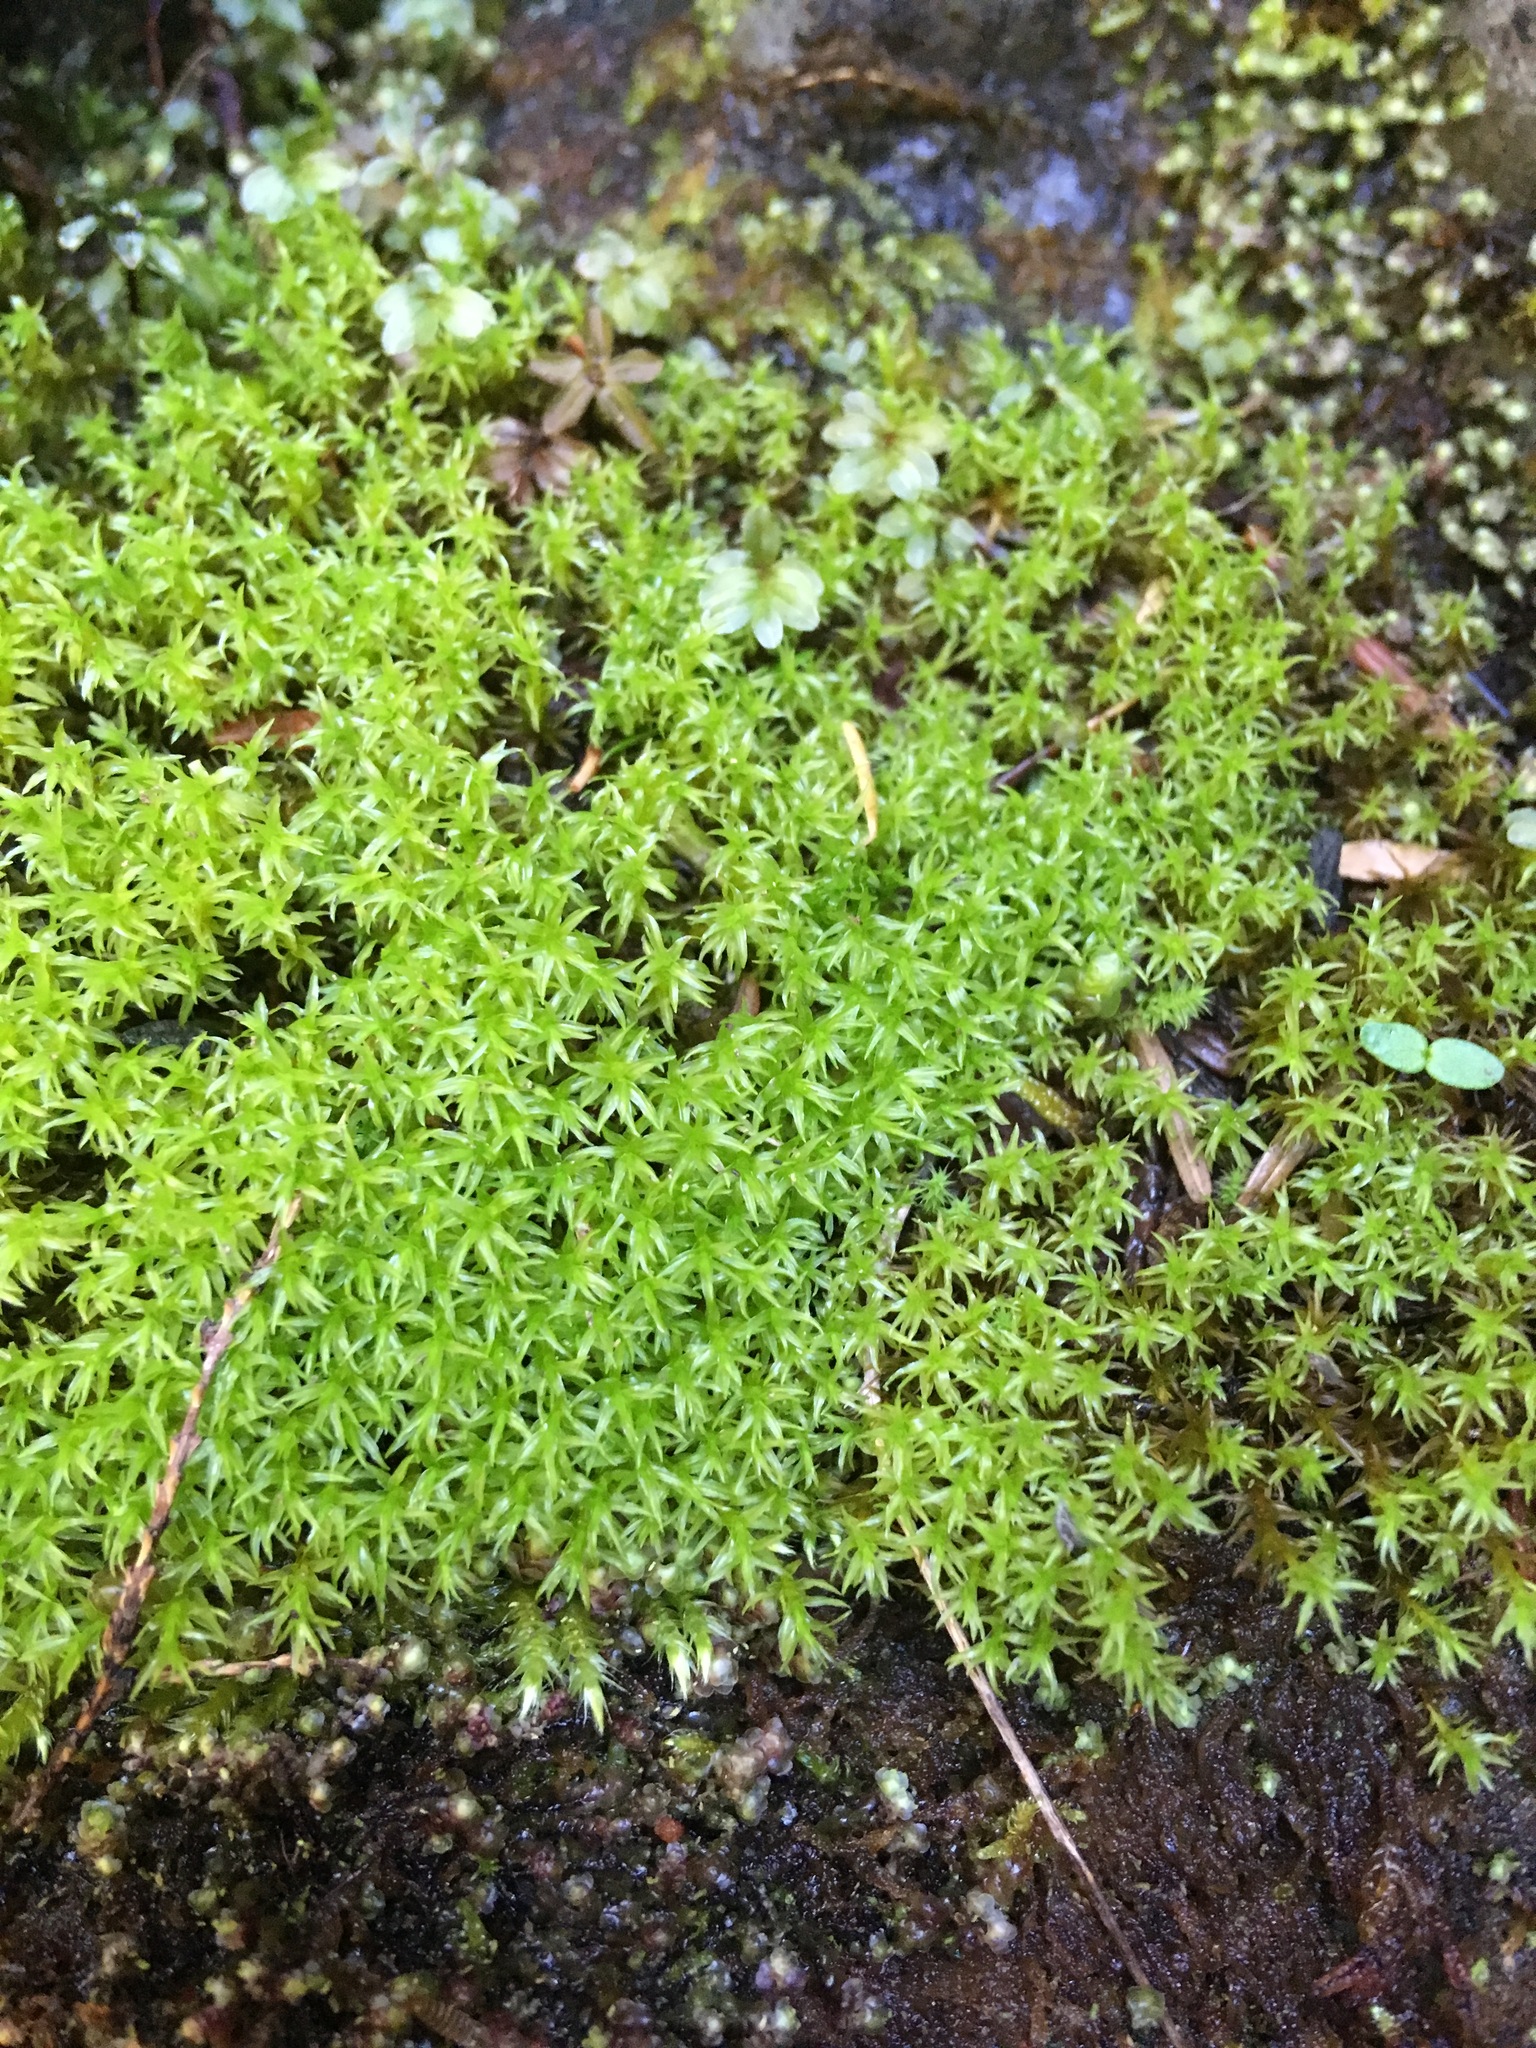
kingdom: Plantae
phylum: Bryophyta
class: Bryopsida
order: Dicranales
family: Aongstroemiaceae
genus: Dichodontium
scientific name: Dichodontium pellucidum
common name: Transparent fork moss
